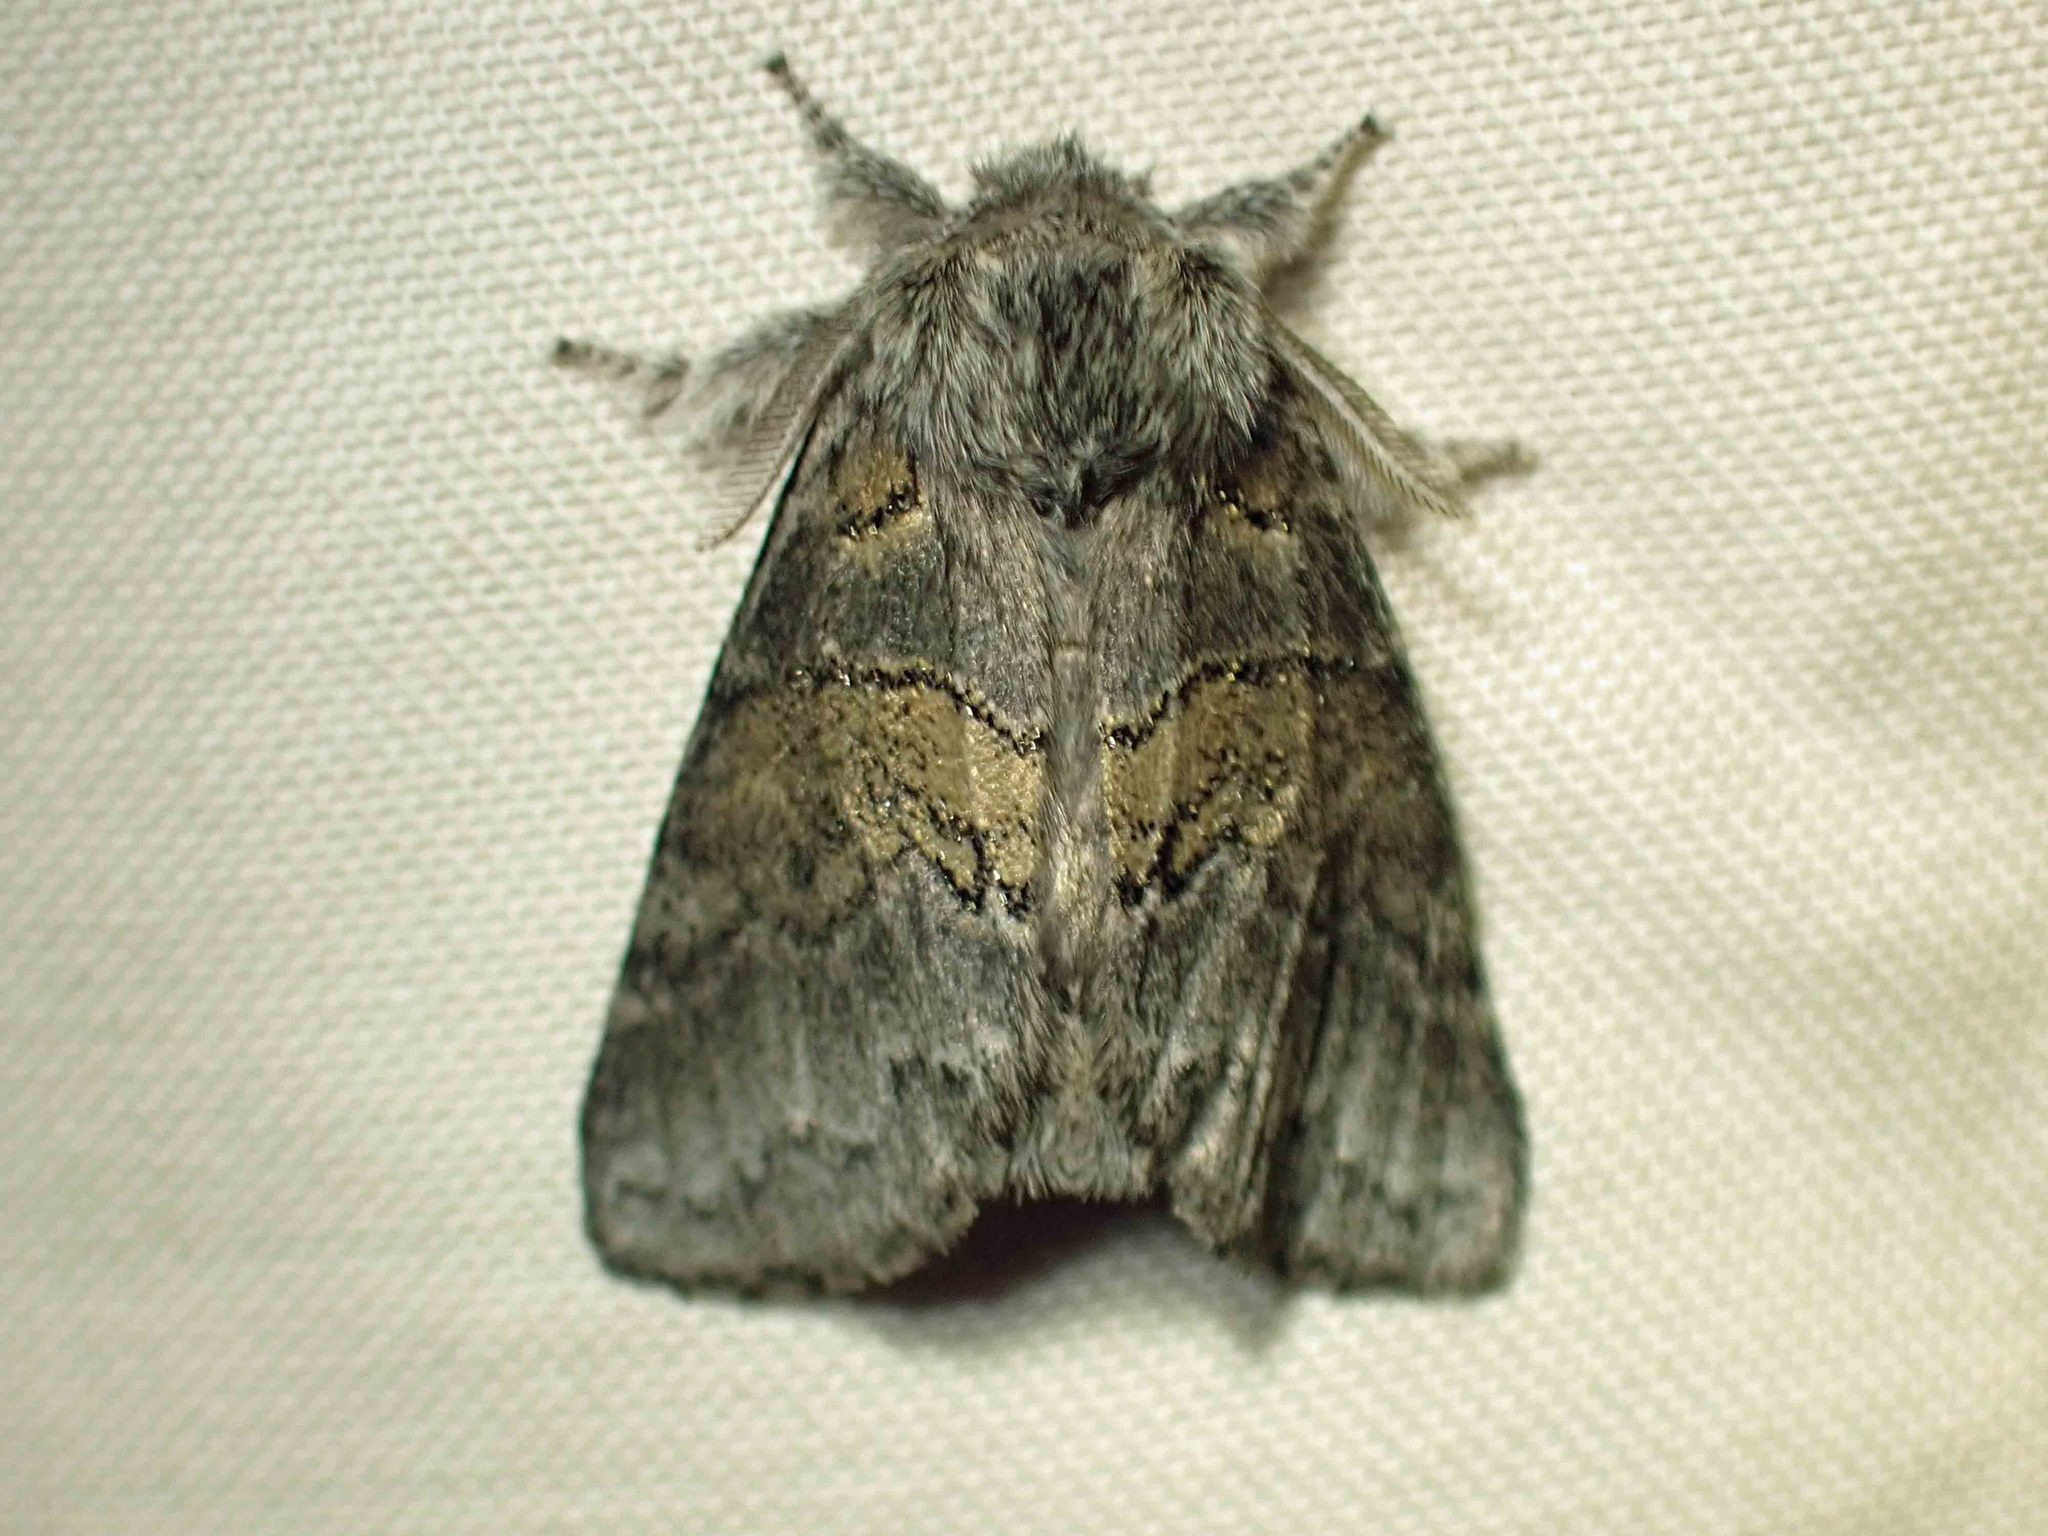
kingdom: Animalia
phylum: Arthropoda
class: Insecta
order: Lepidoptera
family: Notodontidae
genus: Gluphisia
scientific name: Gluphisia septentrionis
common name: Common gluphisia
